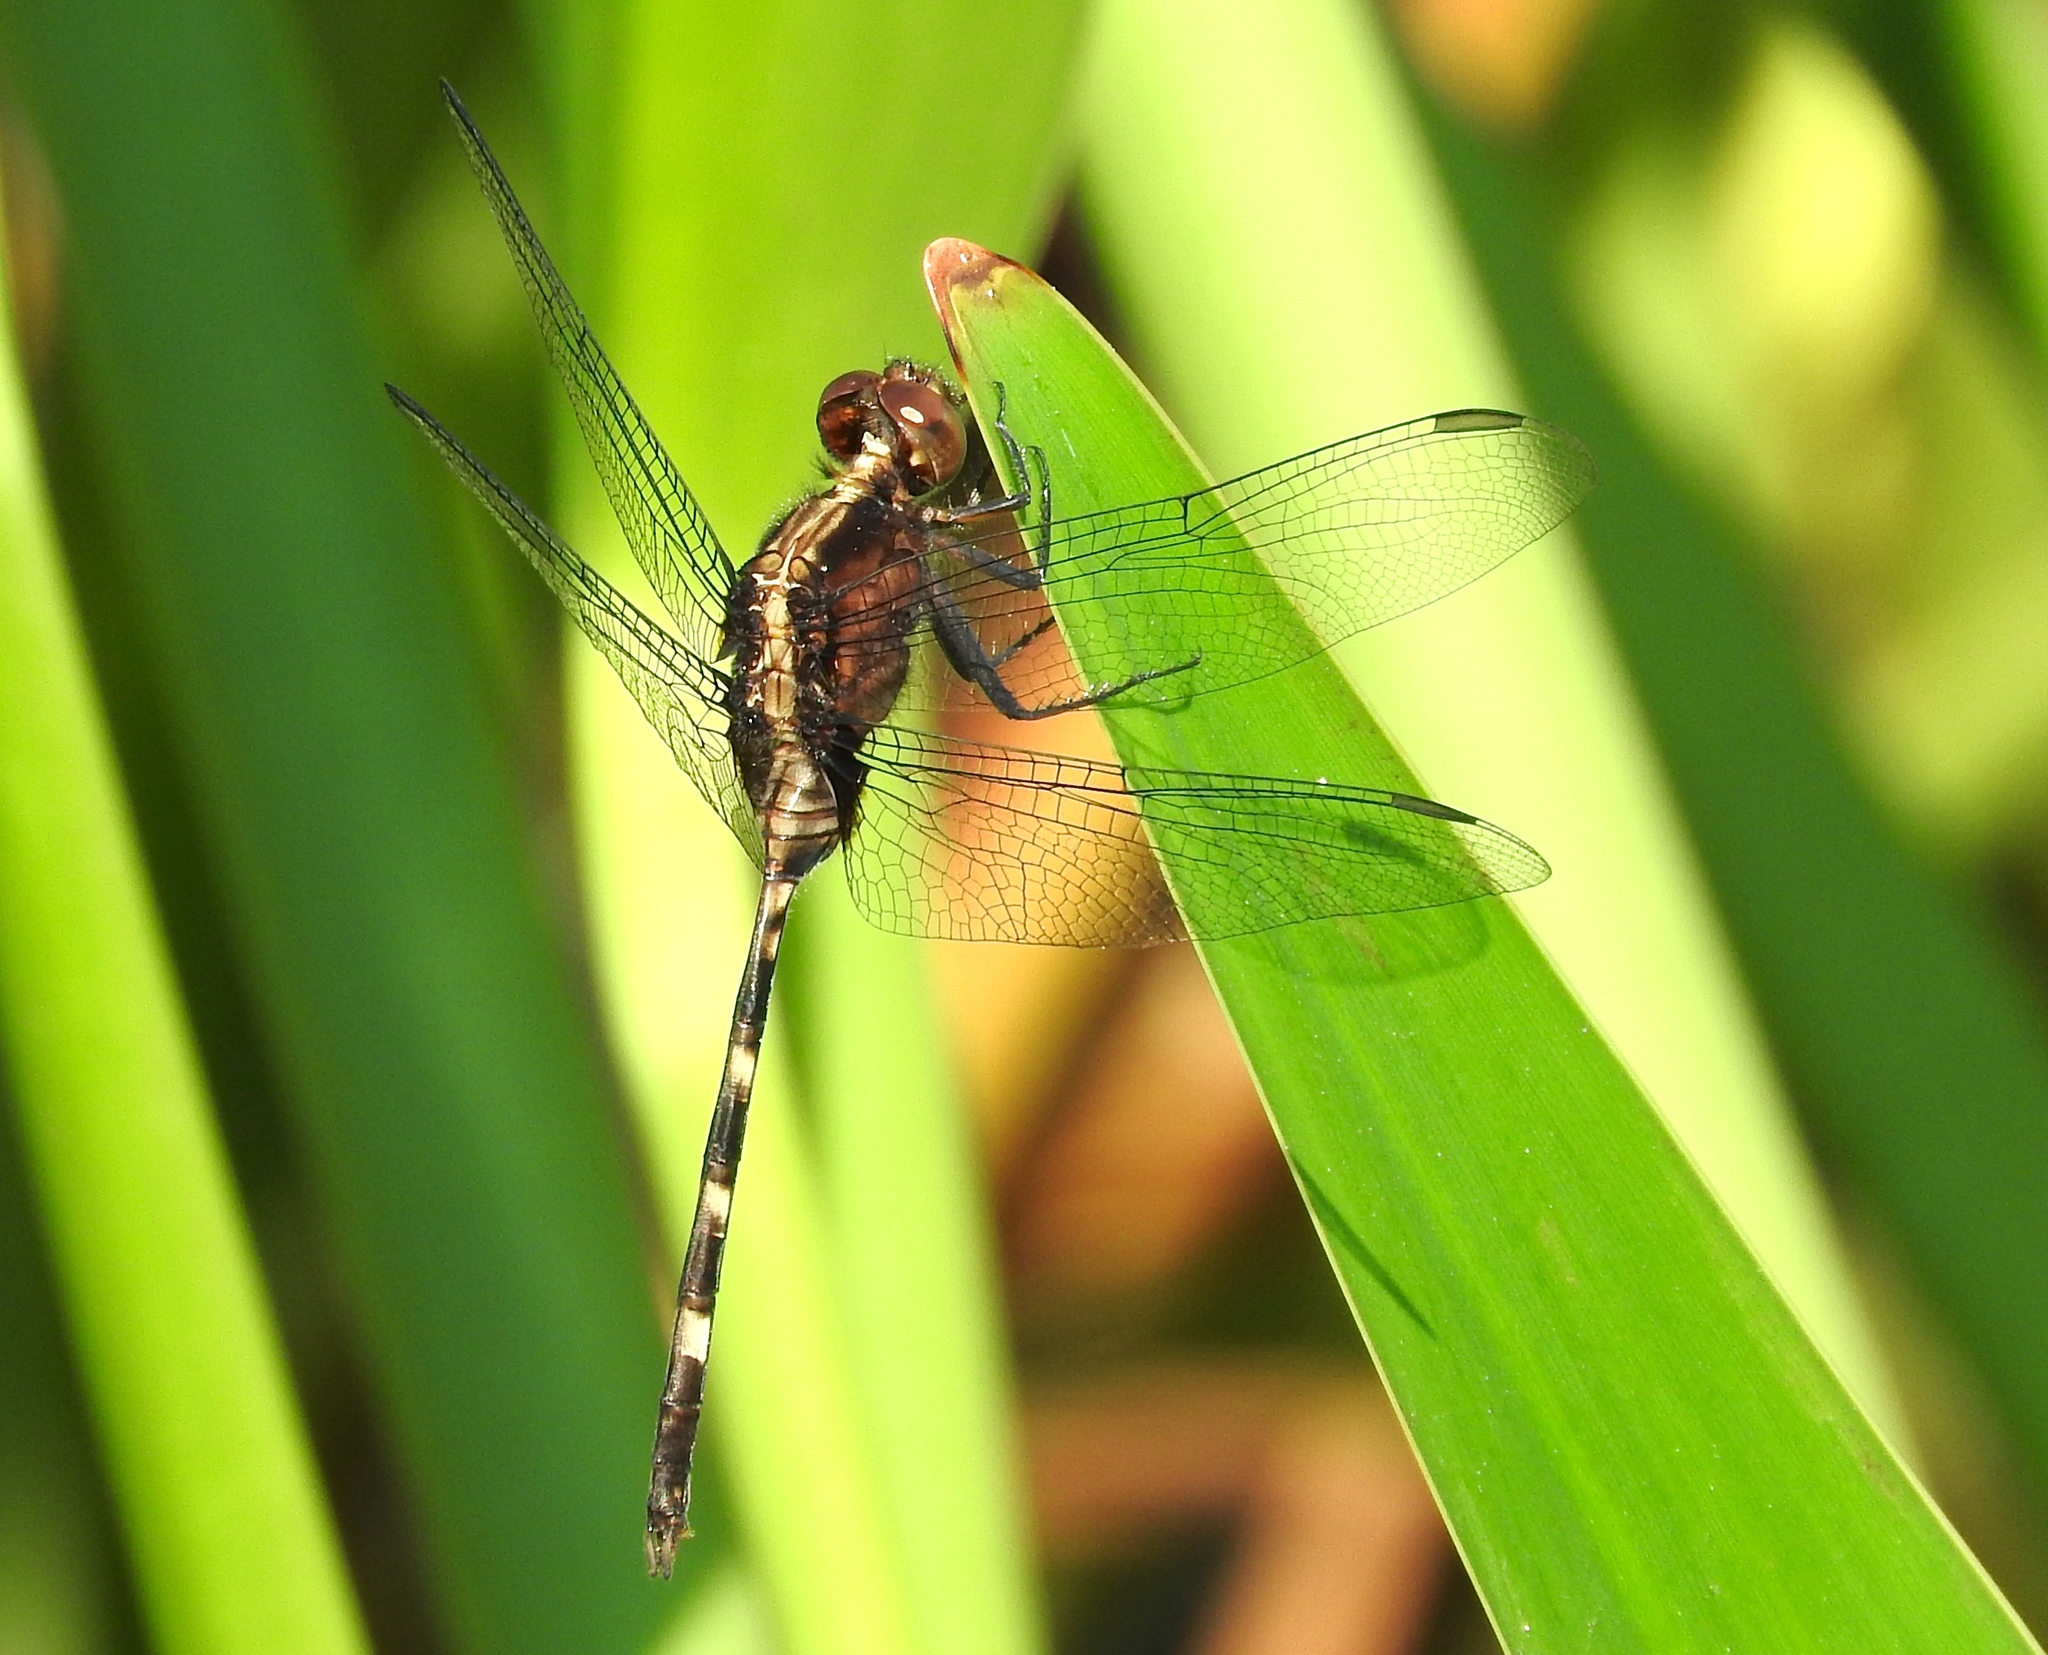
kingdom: Animalia
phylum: Arthropoda
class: Insecta
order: Odonata
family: Libellulidae
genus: Erythemis
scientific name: Erythemis plebeja
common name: Pin-tailed pondhawk
